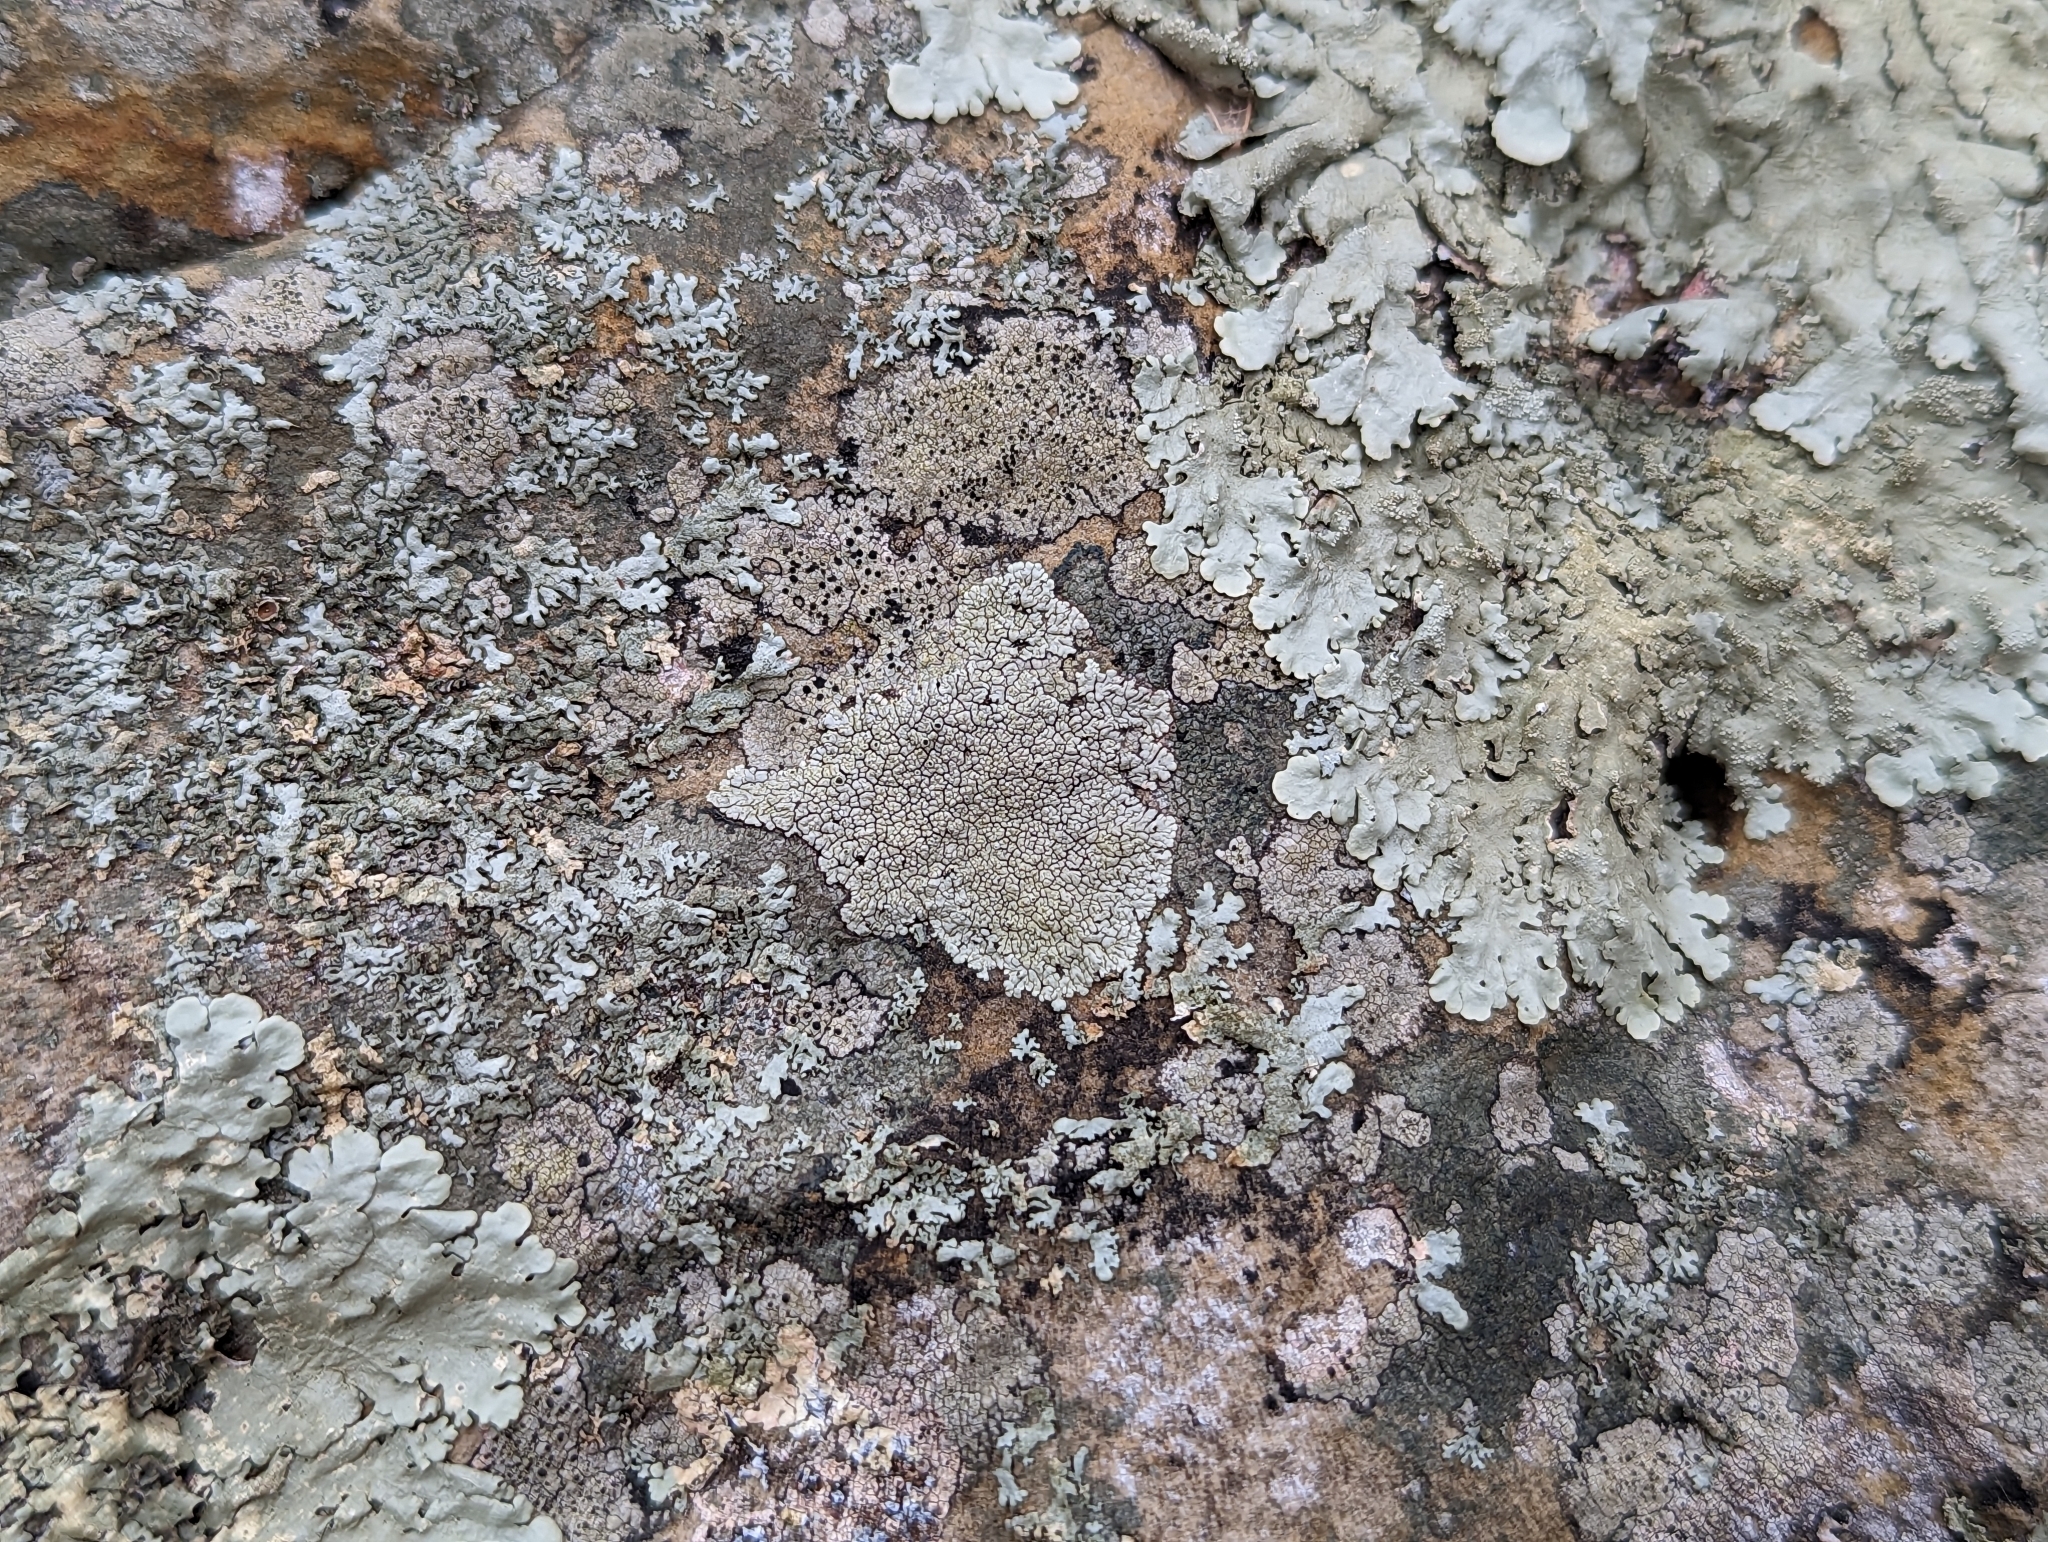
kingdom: Fungi
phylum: Ascomycota
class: Lecanoromycetes
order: Caliciales
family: Caliciaceae
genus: Dimelaena
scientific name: Dimelaena oreina
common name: Golden moonglow lichen
